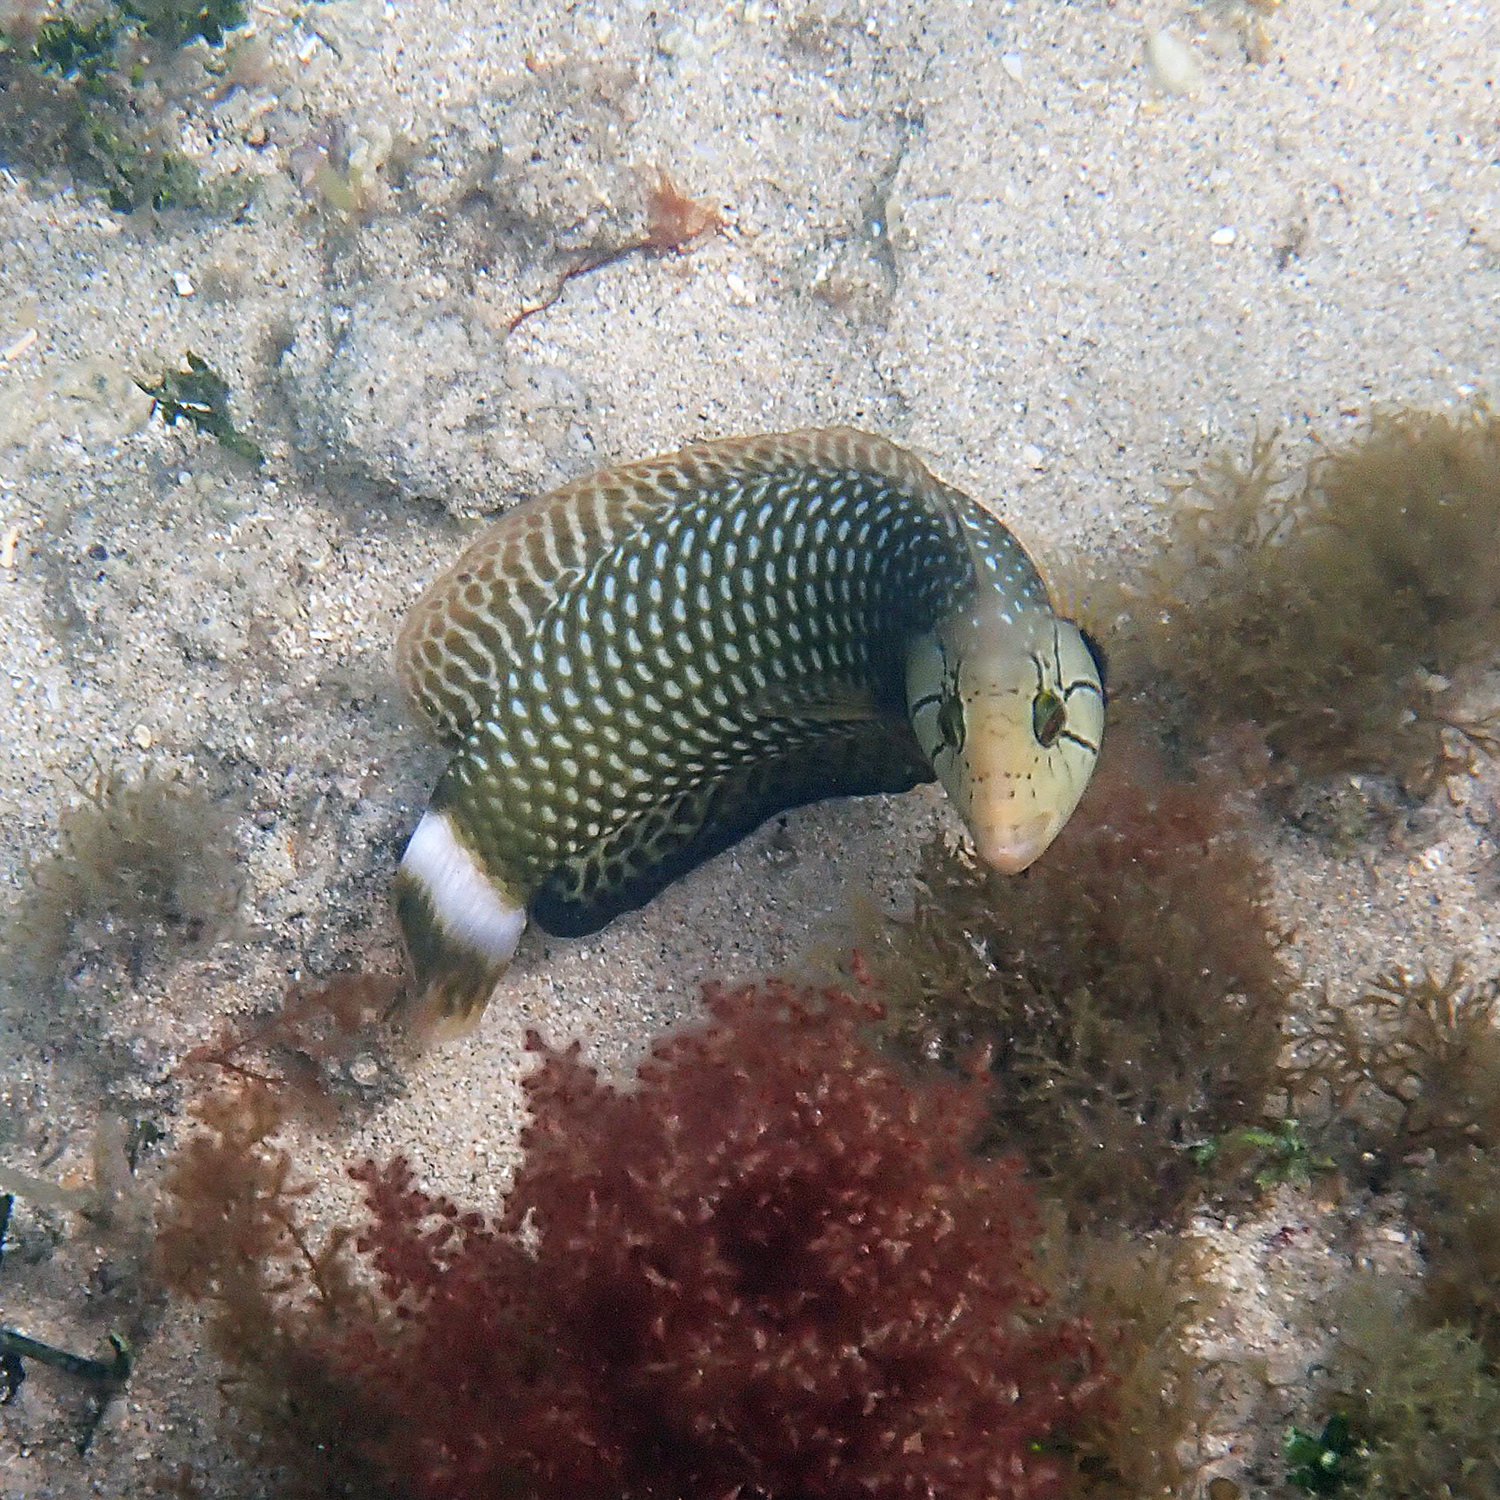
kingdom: Animalia
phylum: Chordata
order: Perciformes
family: Labridae
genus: Novaculichthys
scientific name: Novaculichthys taeniourus
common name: Rockmover wrasse
